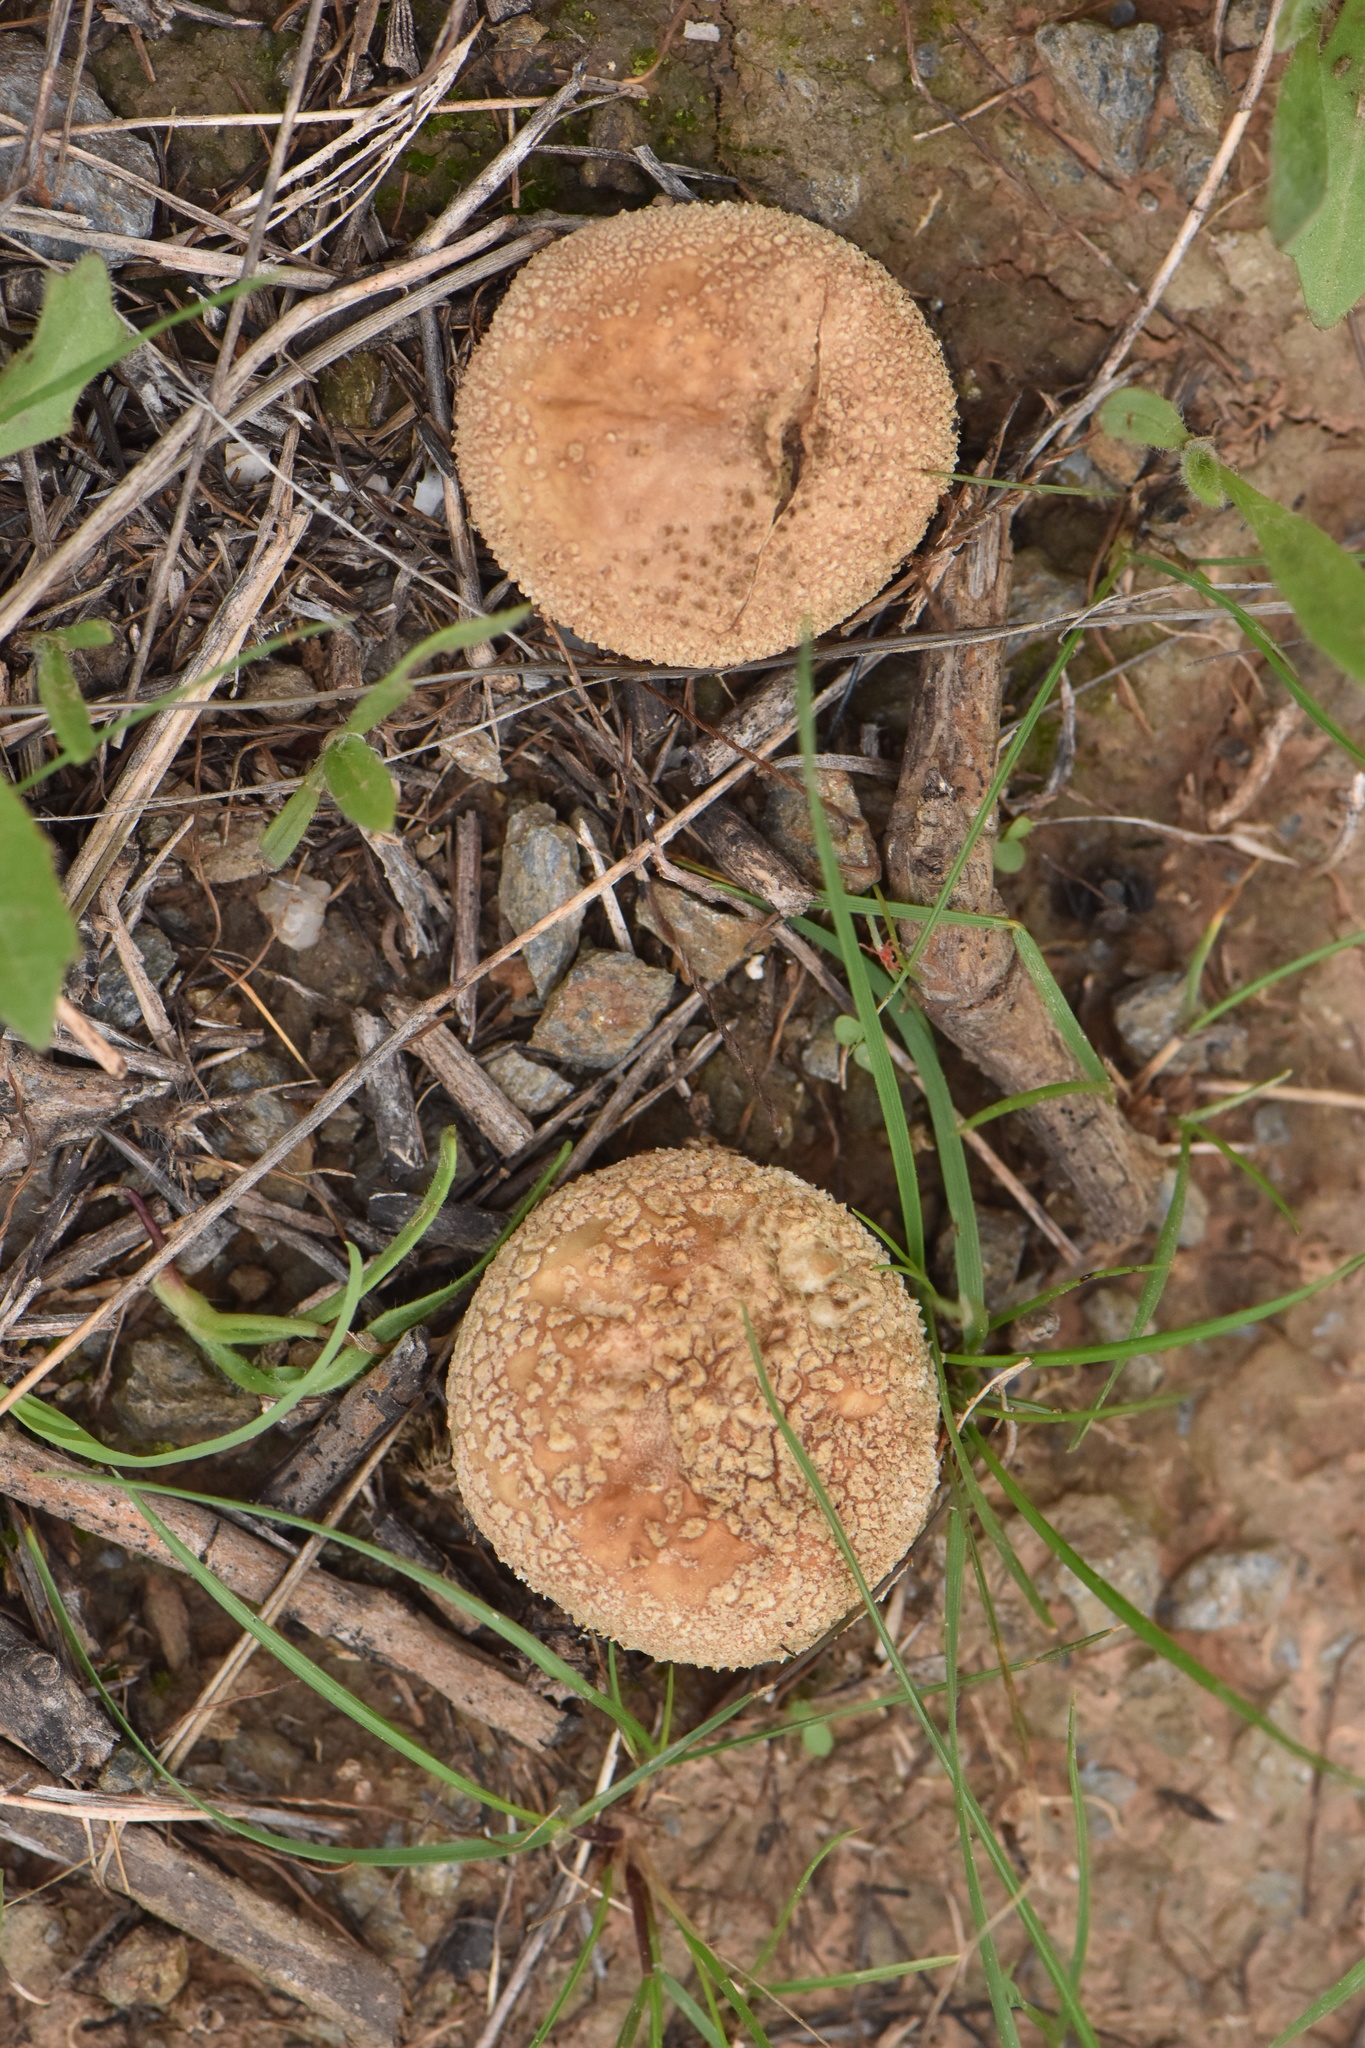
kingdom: Fungi
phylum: Basidiomycota
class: Agaricomycetes
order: Agaricales
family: Amanitaceae
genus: Amanita
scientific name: Amanita rubescens
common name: Blusher
